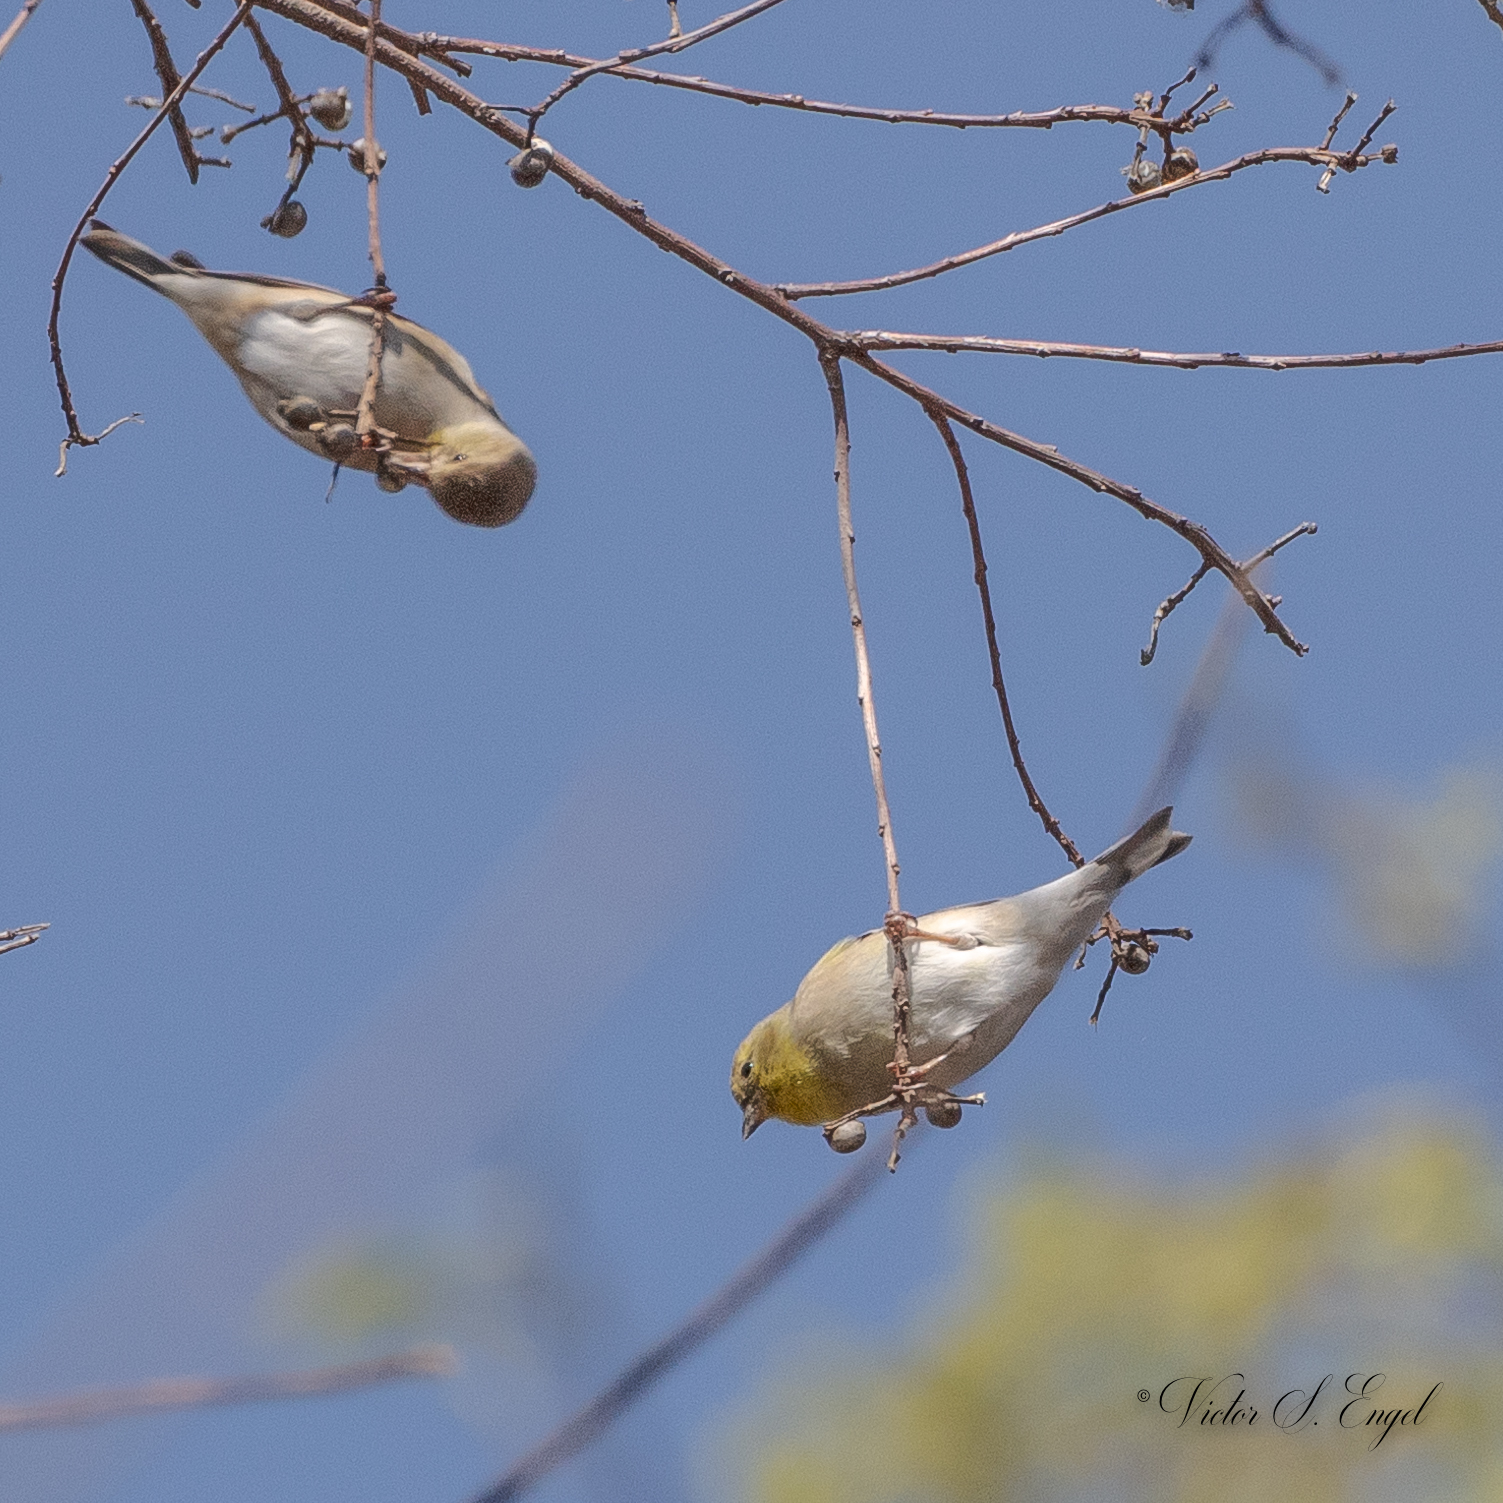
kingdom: Animalia
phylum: Chordata
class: Aves
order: Passeriformes
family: Fringillidae
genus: Spinus
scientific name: Spinus tristis
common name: American goldfinch
